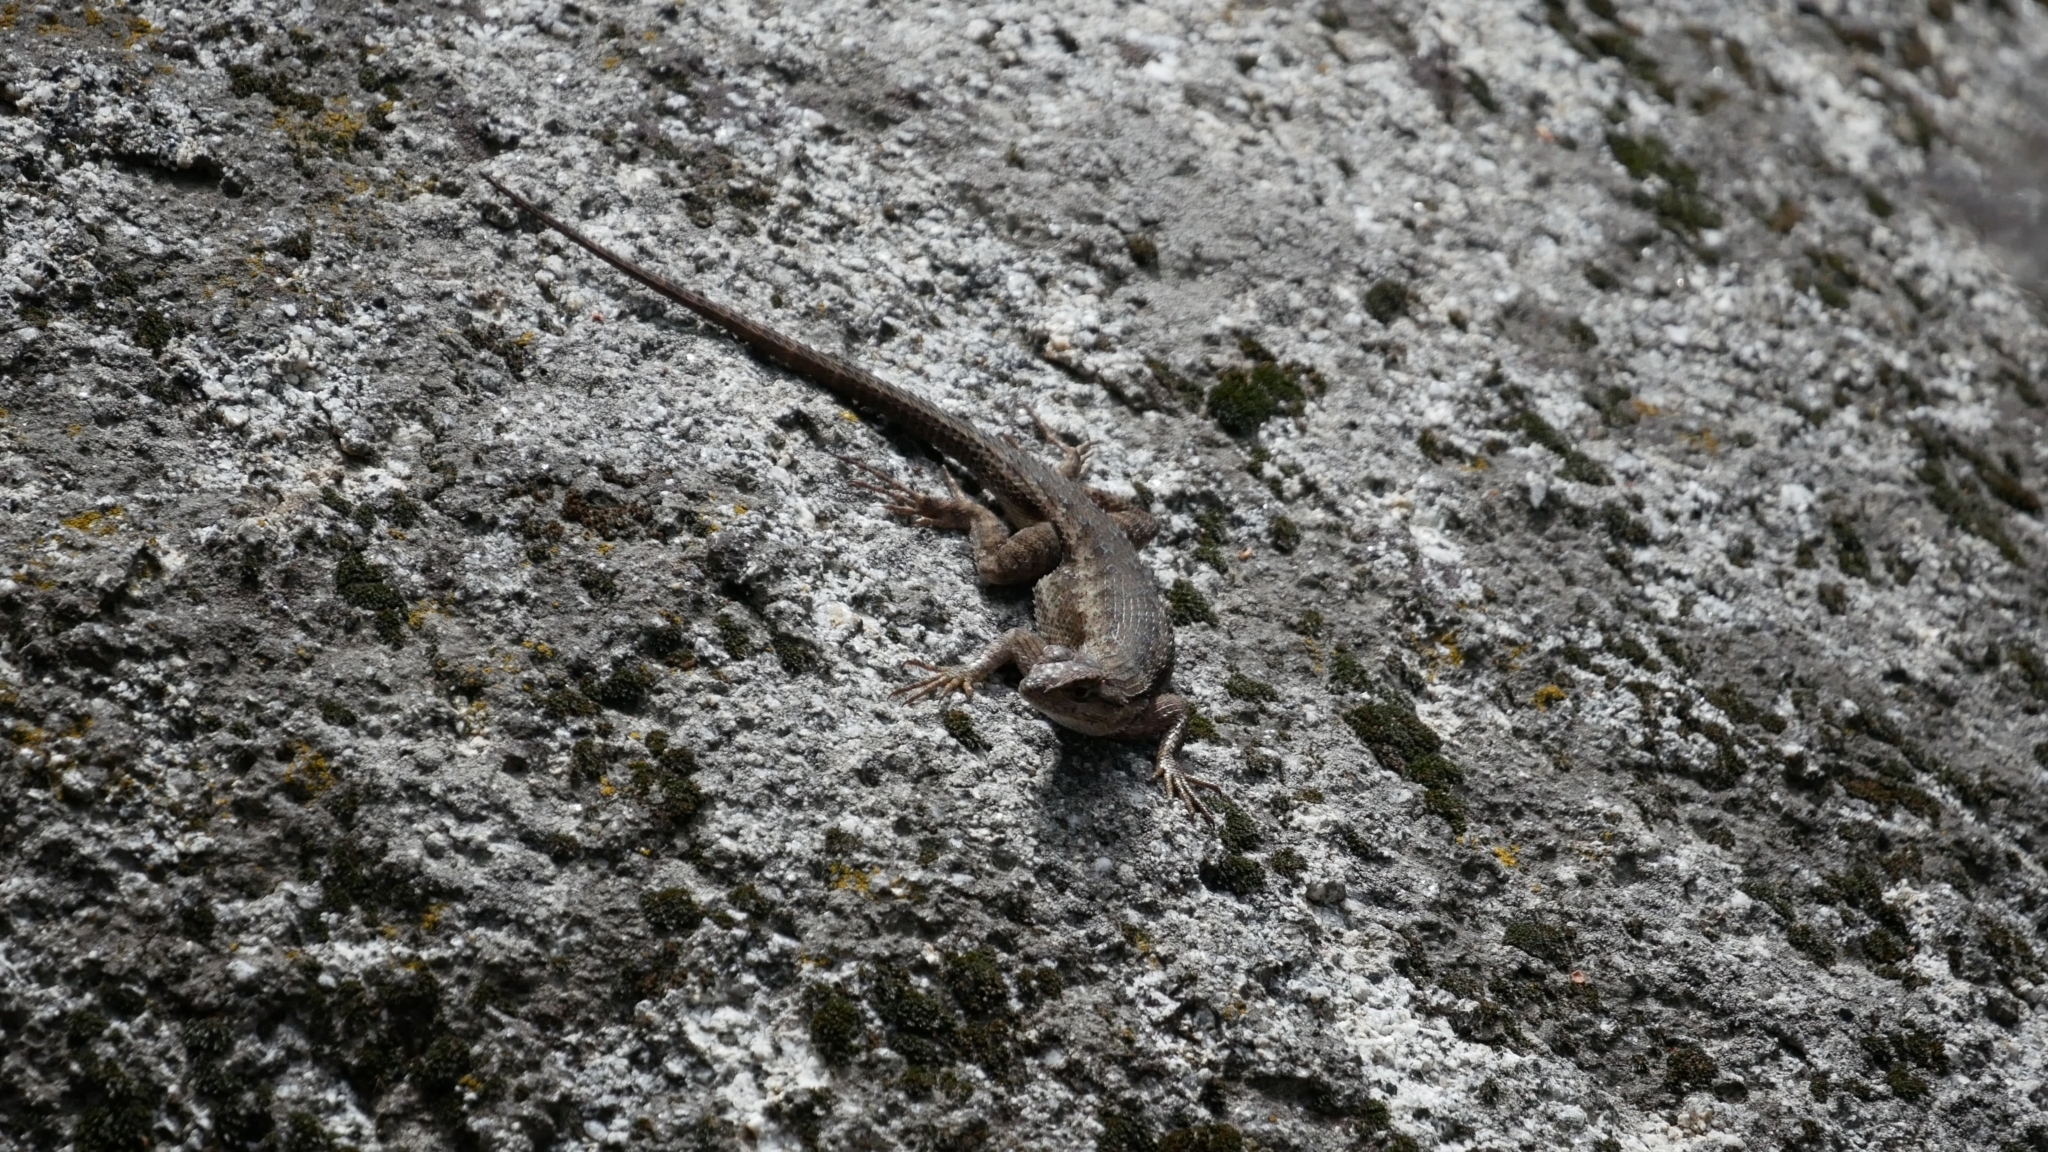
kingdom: Animalia
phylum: Chordata
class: Squamata
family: Phrynosomatidae
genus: Sceloporus
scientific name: Sceloporus occidentalis
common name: Western fence lizard
